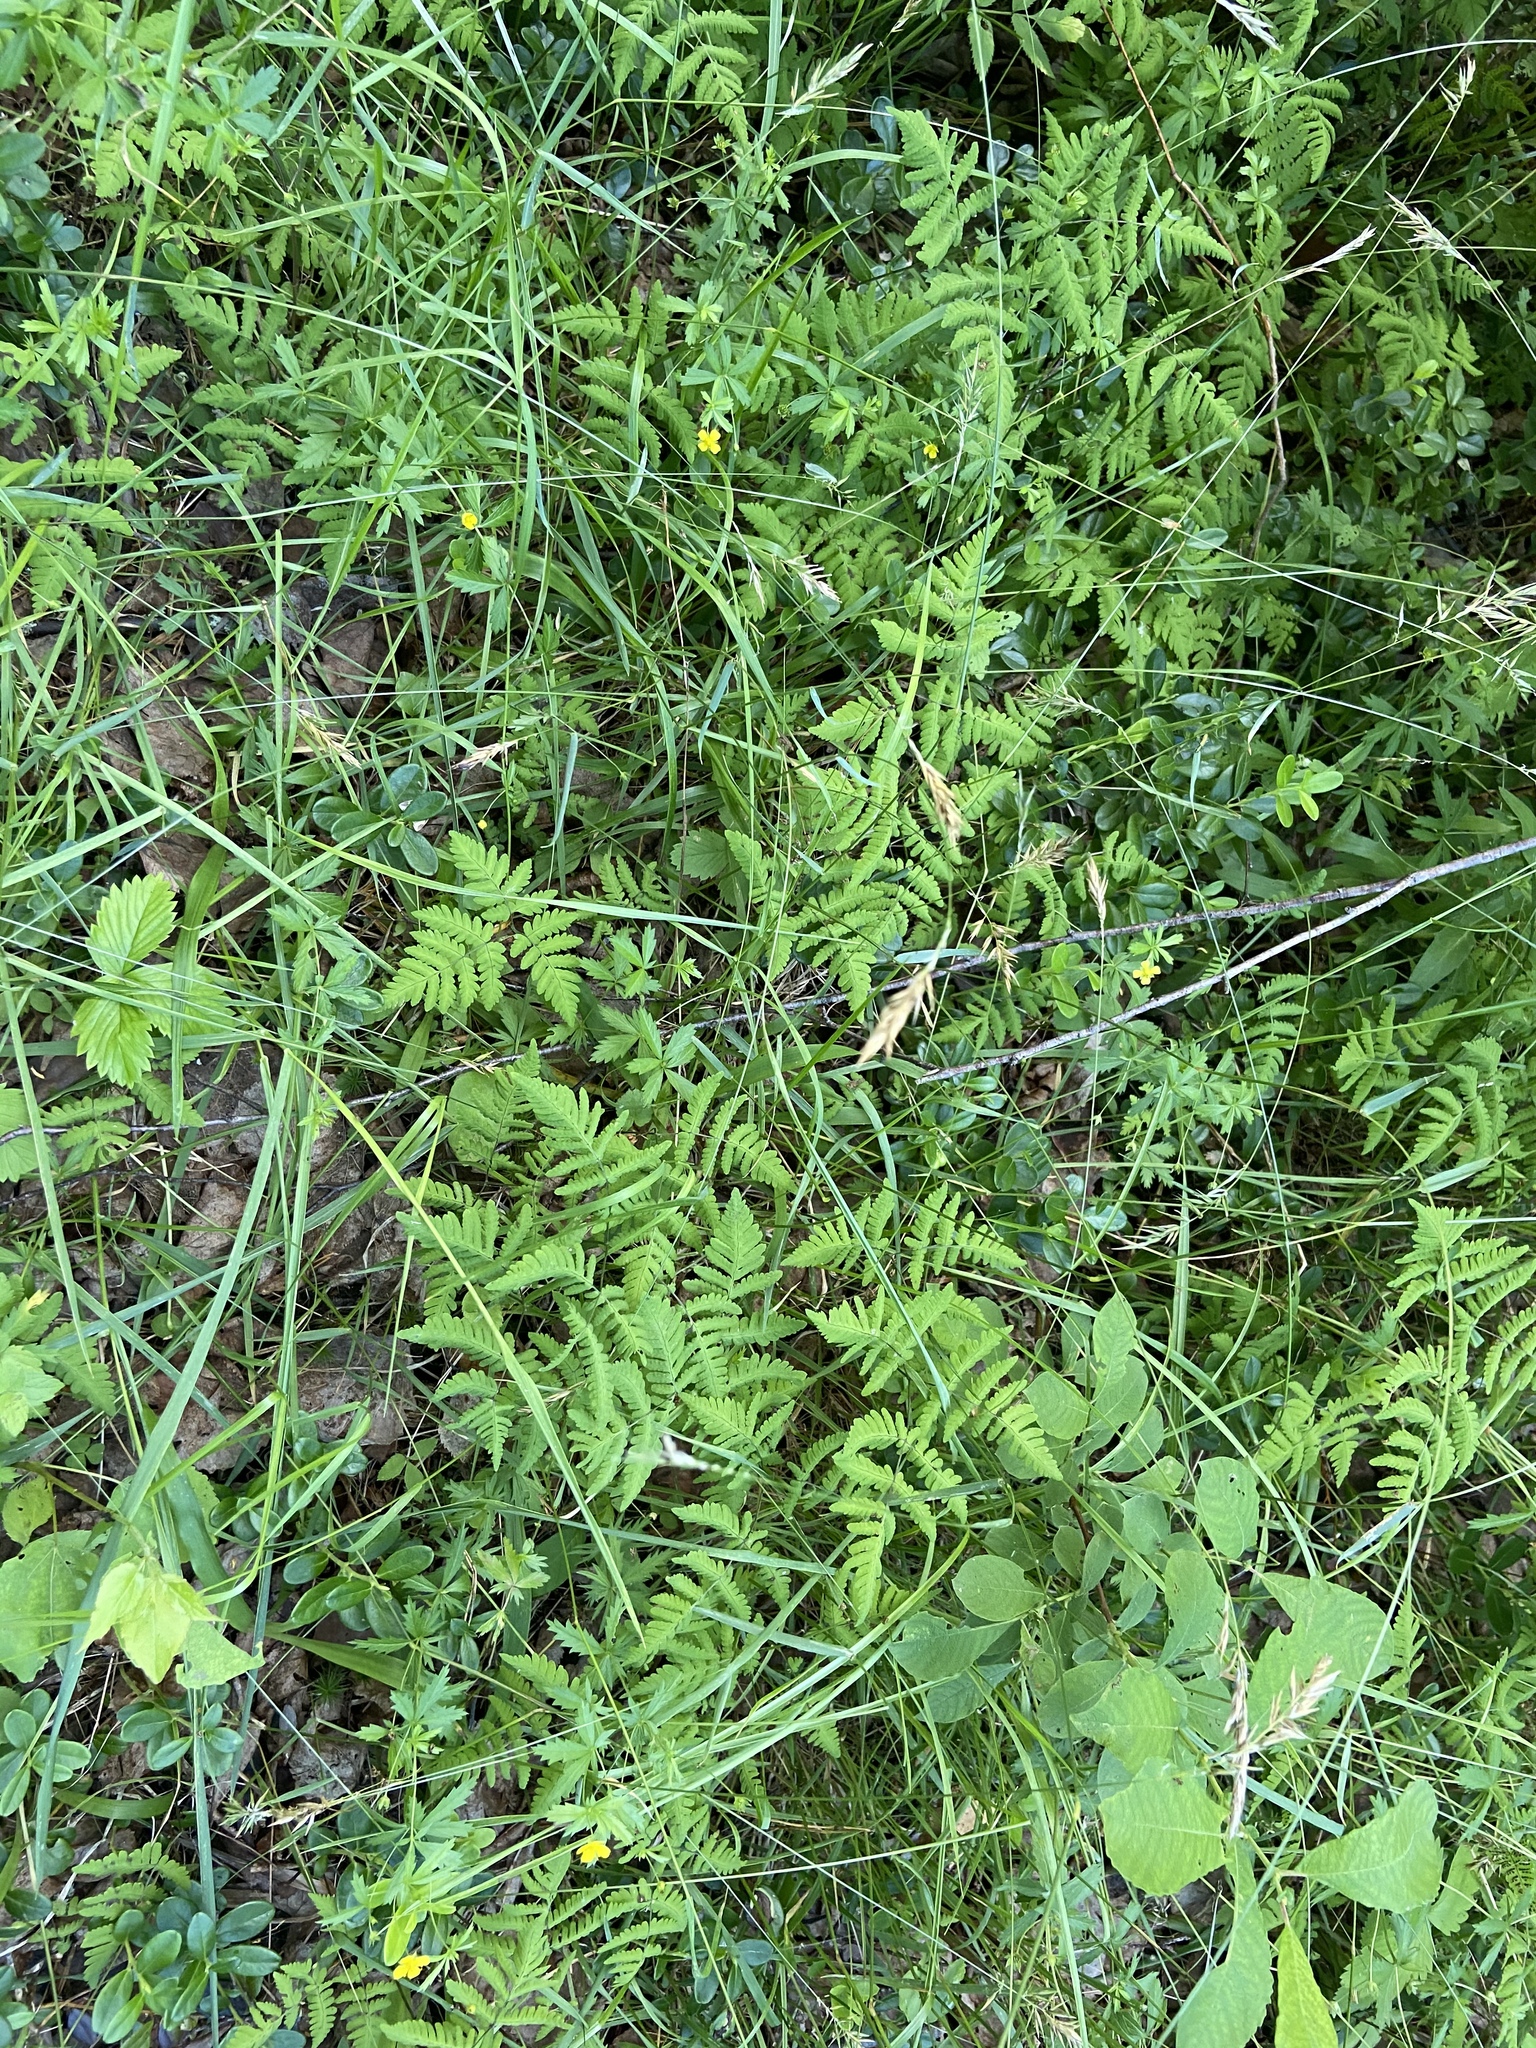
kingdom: Plantae
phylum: Tracheophyta
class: Polypodiopsida
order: Polypodiales
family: Cystopteridaceae
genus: Gymnocarpium
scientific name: Gymnocarpium dryopteris
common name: Oak fern
